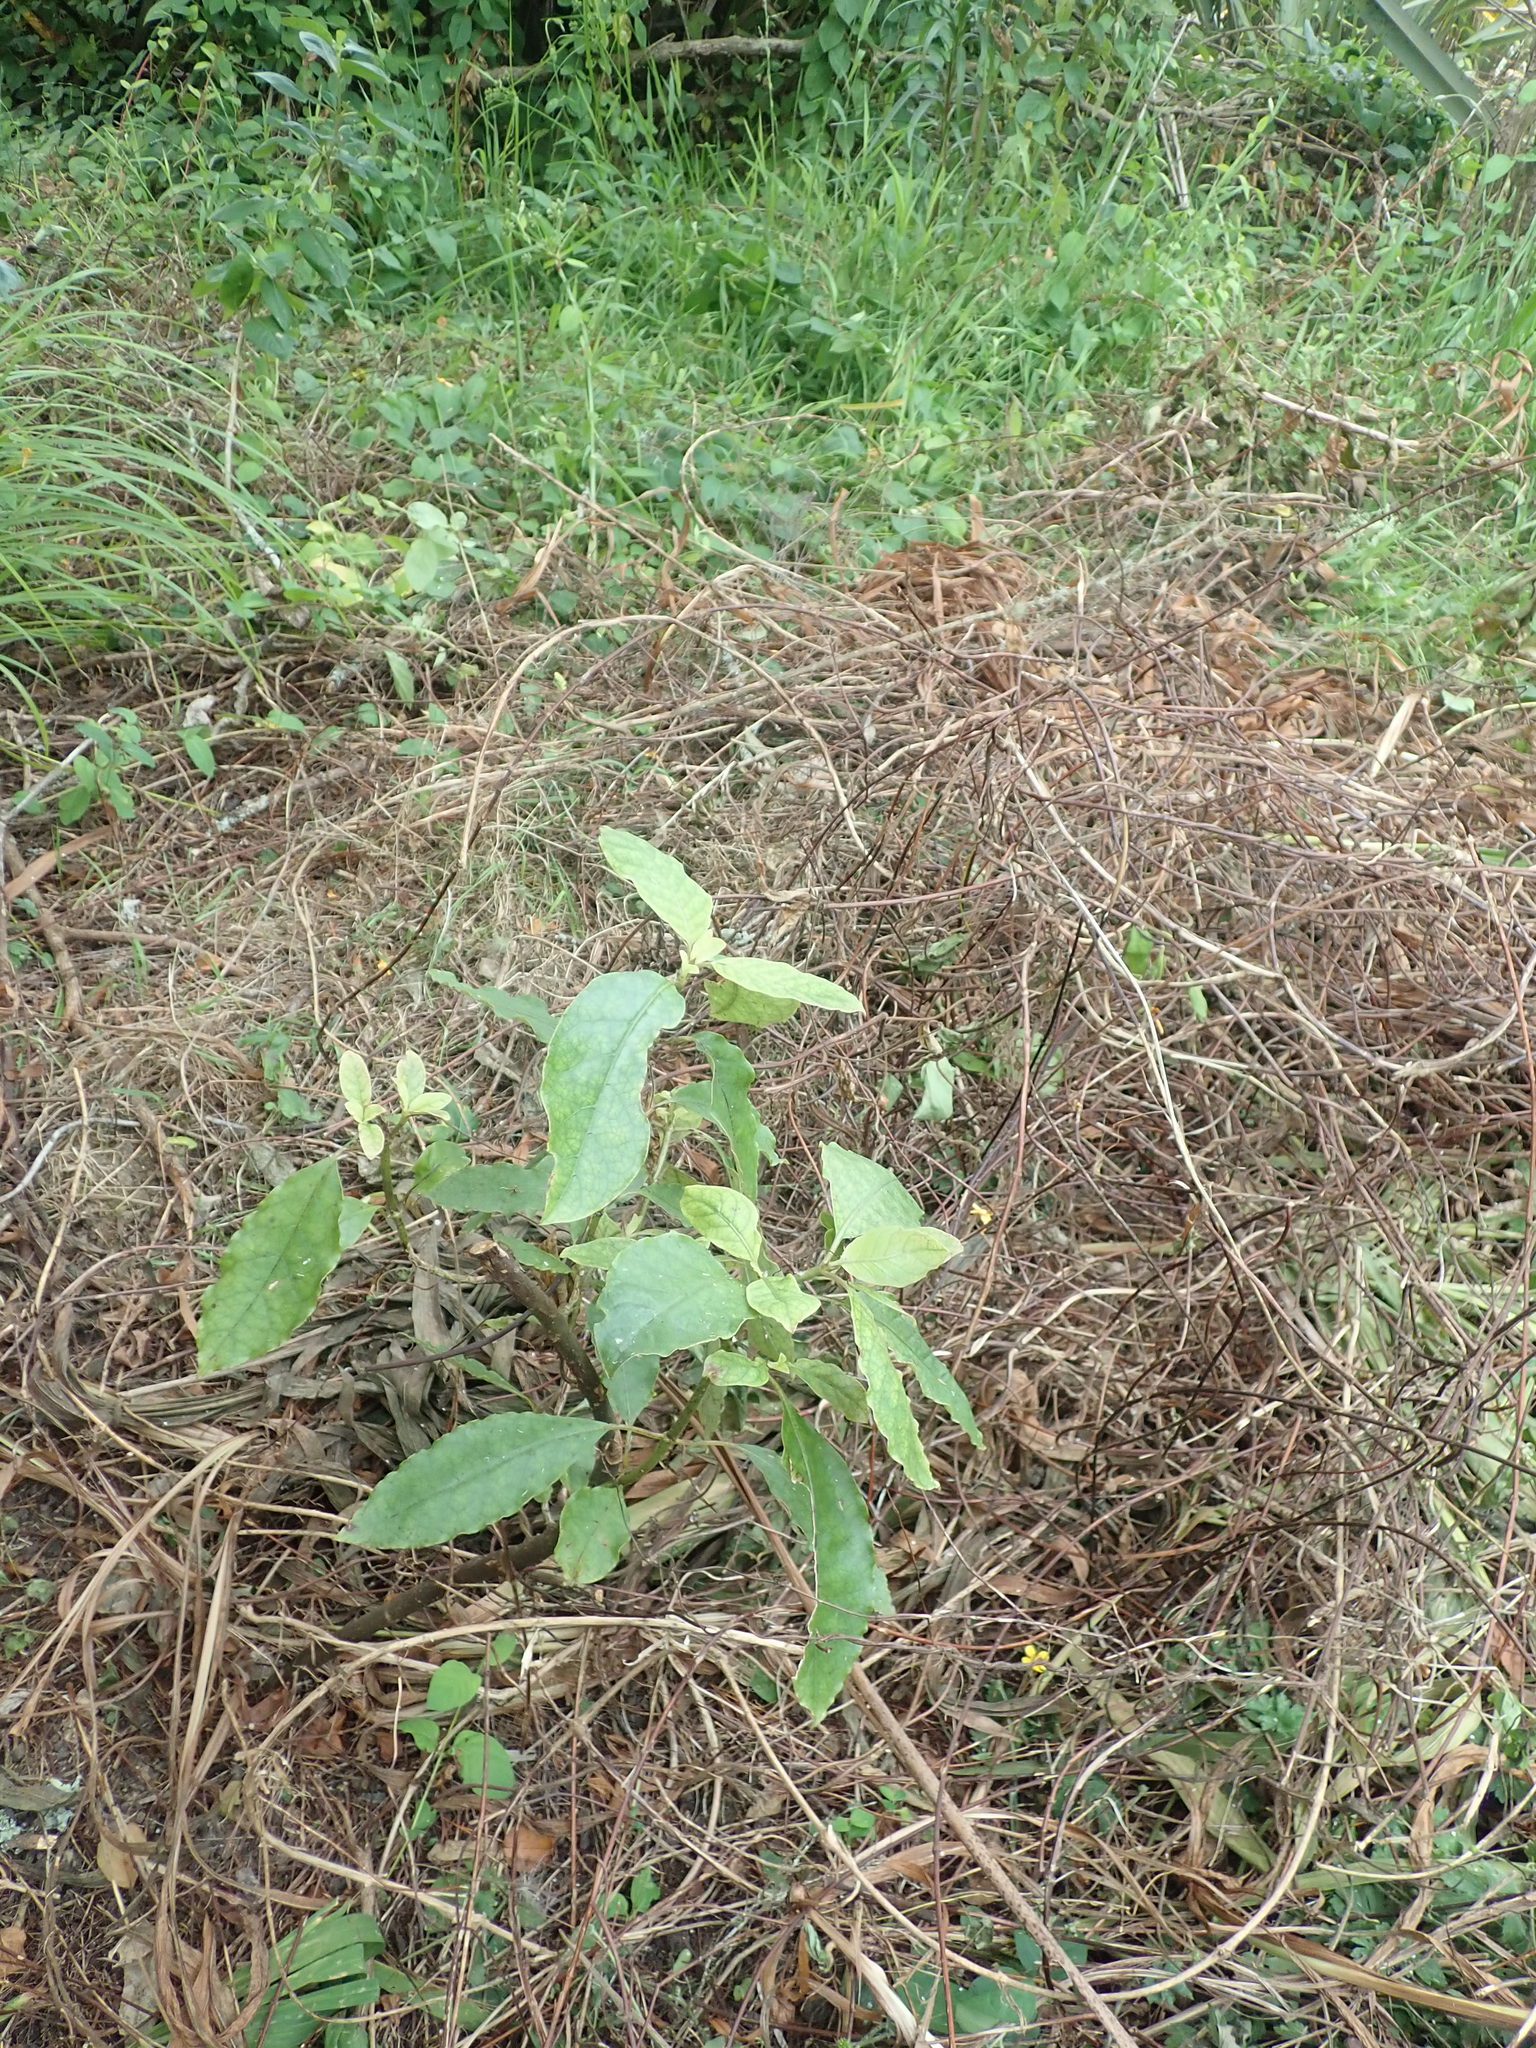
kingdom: Plantae
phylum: Tracheophyta
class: Magnoliopsida
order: Gentianales
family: Rubiaceae
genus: Coprosma
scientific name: Coprosma autumnalis
